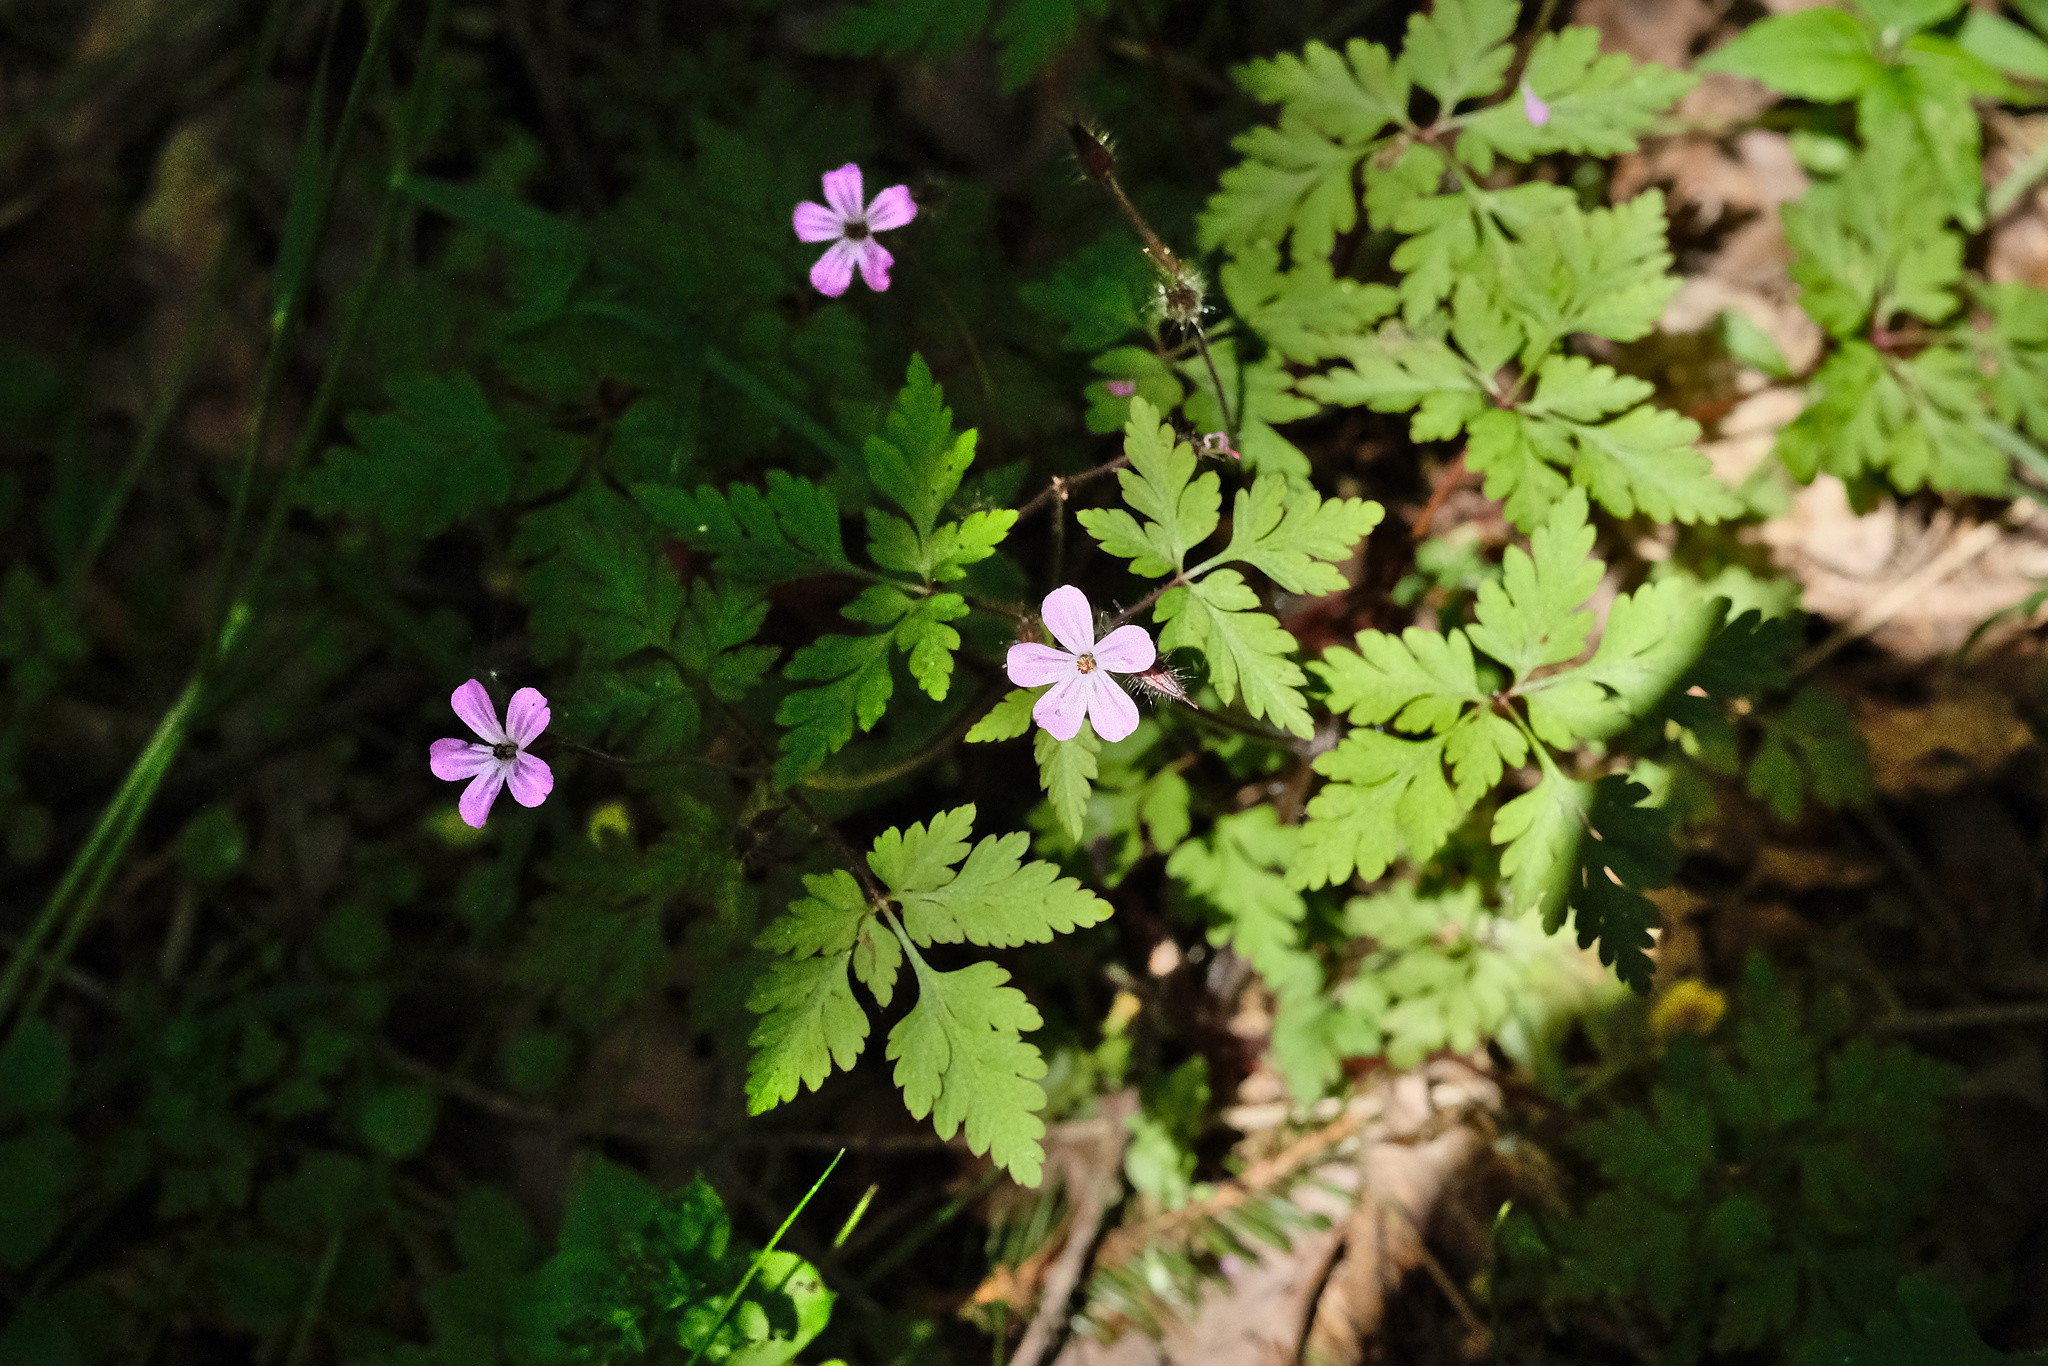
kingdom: Plantae
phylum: Tracheophyta
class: Magnoliopsida
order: Geraniales
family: Geraniaceae
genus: Geranium
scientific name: Geranium robertianum
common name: Herb-robert
